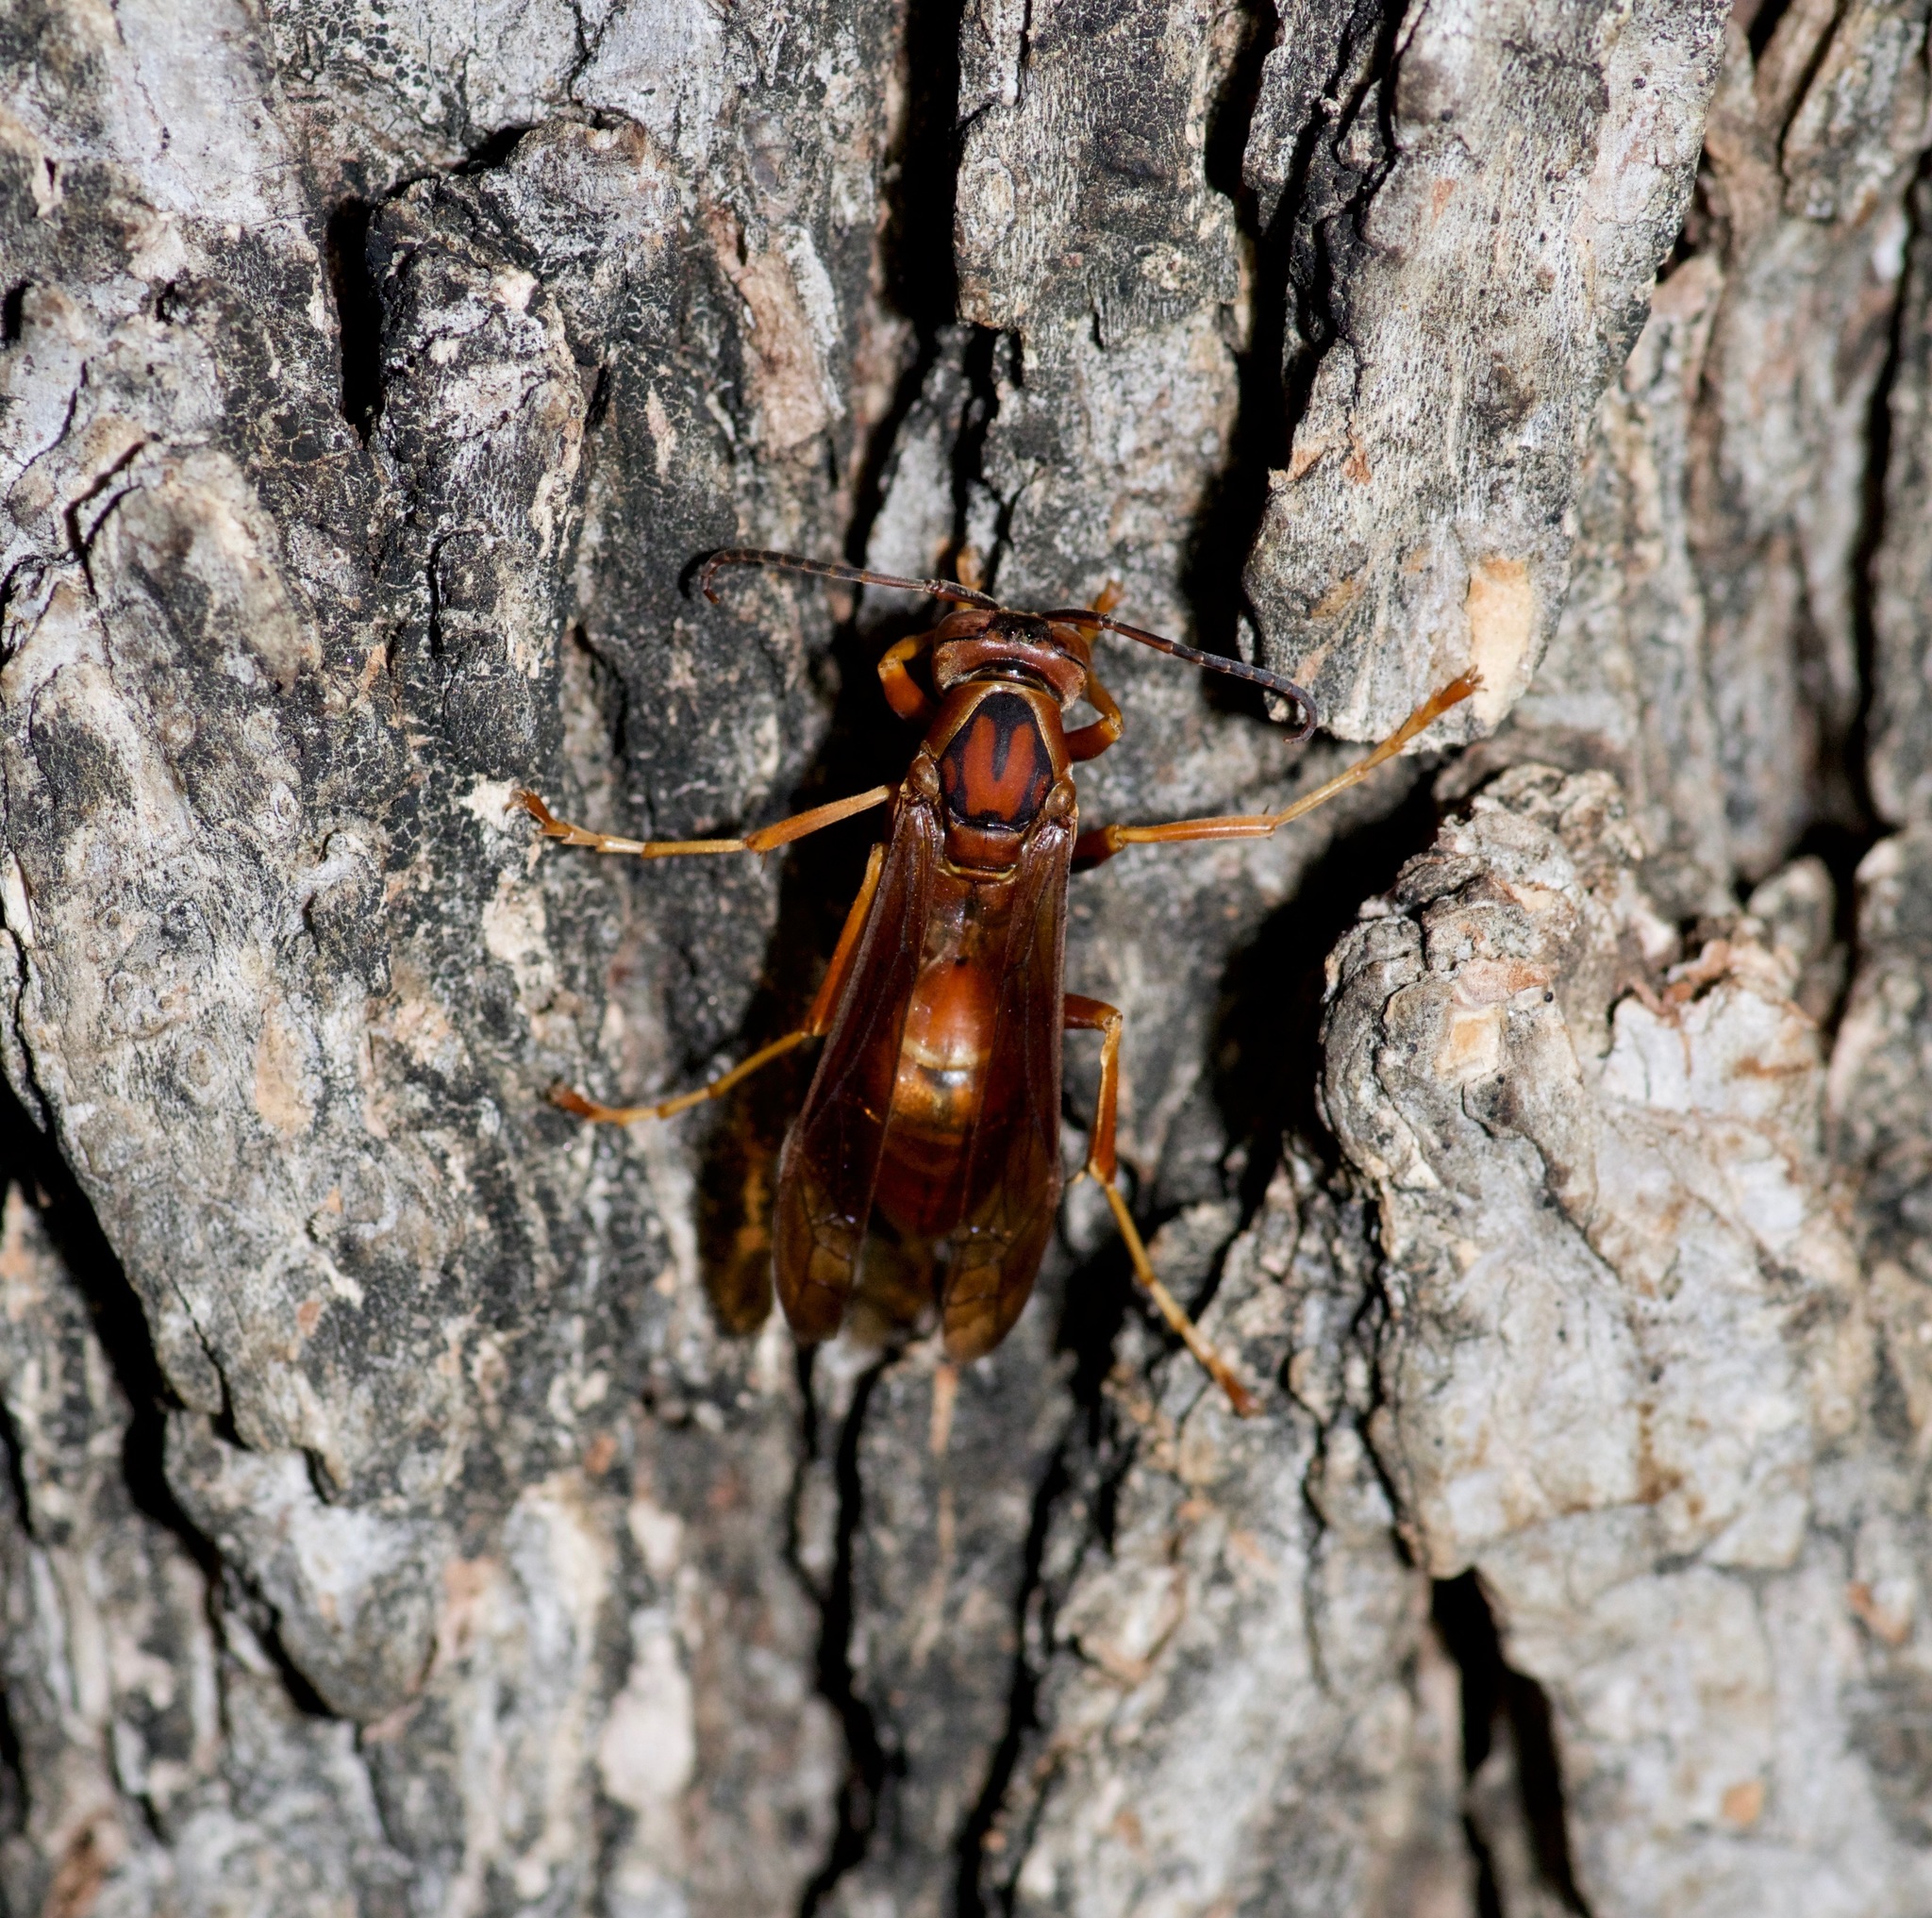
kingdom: Animalia
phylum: Arthropoda
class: Insecta
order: Hymenoptera
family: Eumenidae
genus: Polistes
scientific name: Polistes carolina
